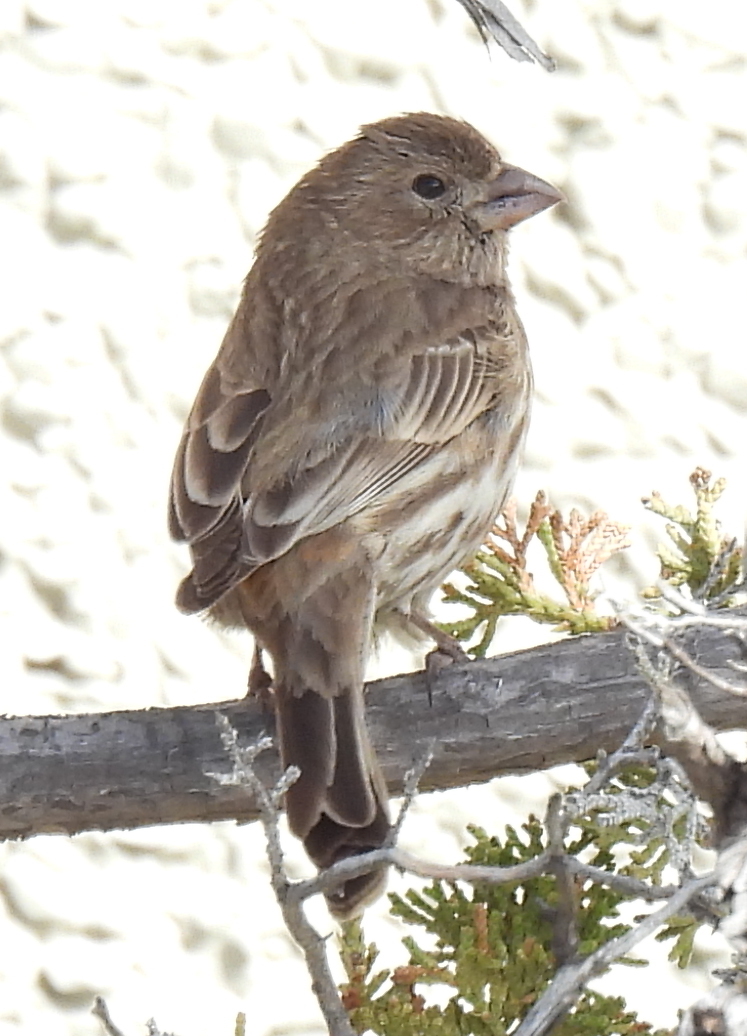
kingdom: Animalia
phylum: Chordata
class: Aves
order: Passeriformes
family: Fringillidae
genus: Haemorhous
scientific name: Haemorhous mexicanus
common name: House finch
